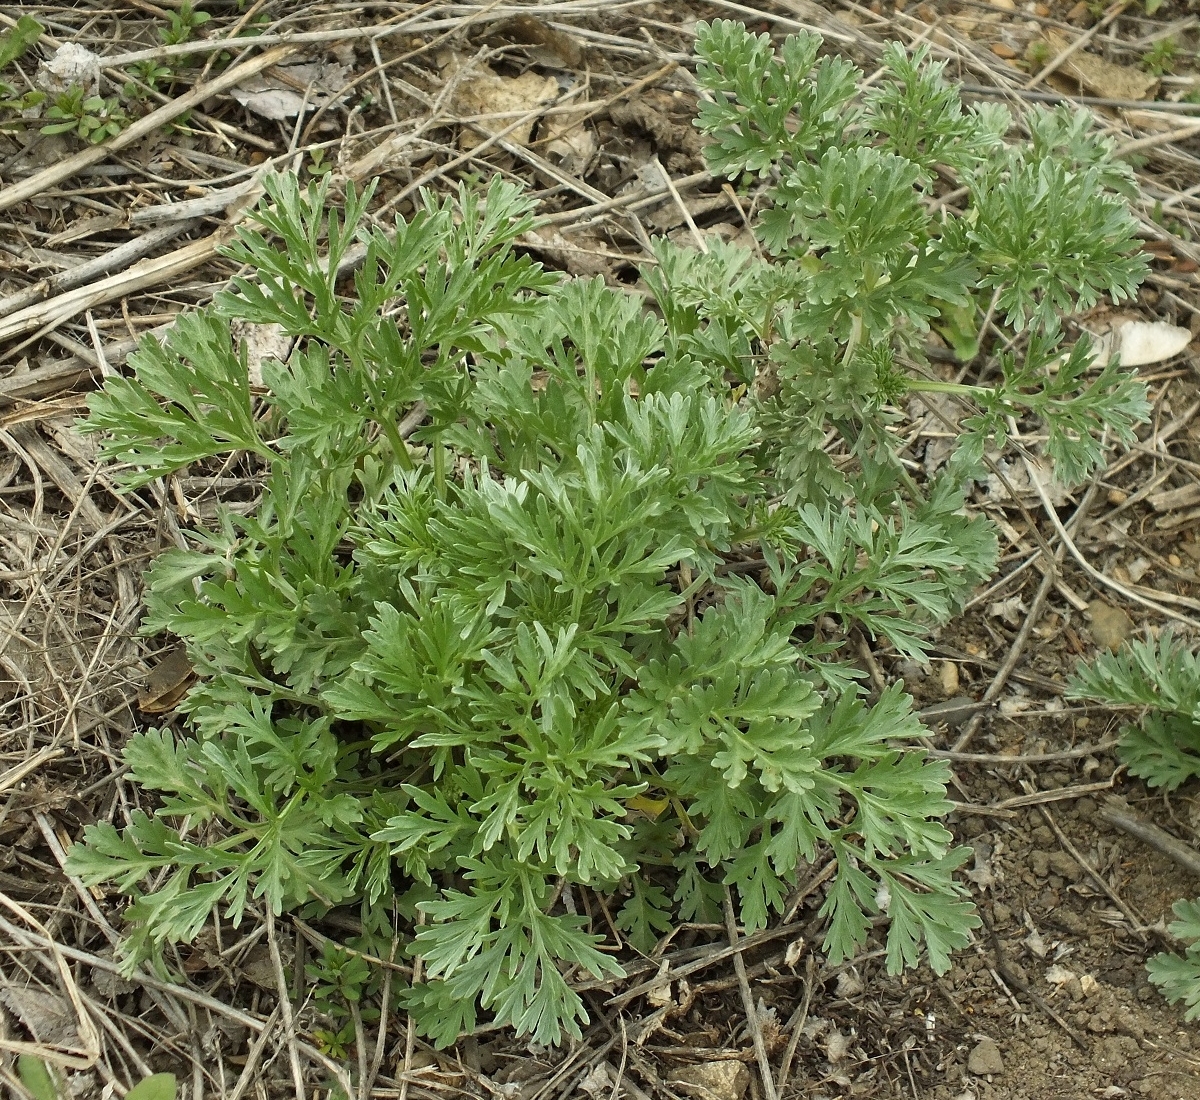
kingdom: Plantae
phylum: Tracheophyta
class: Magnoliopsida
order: Asterales
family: Asteraceae
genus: Artemisia
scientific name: Artemisia absinthium
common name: Wormwood
